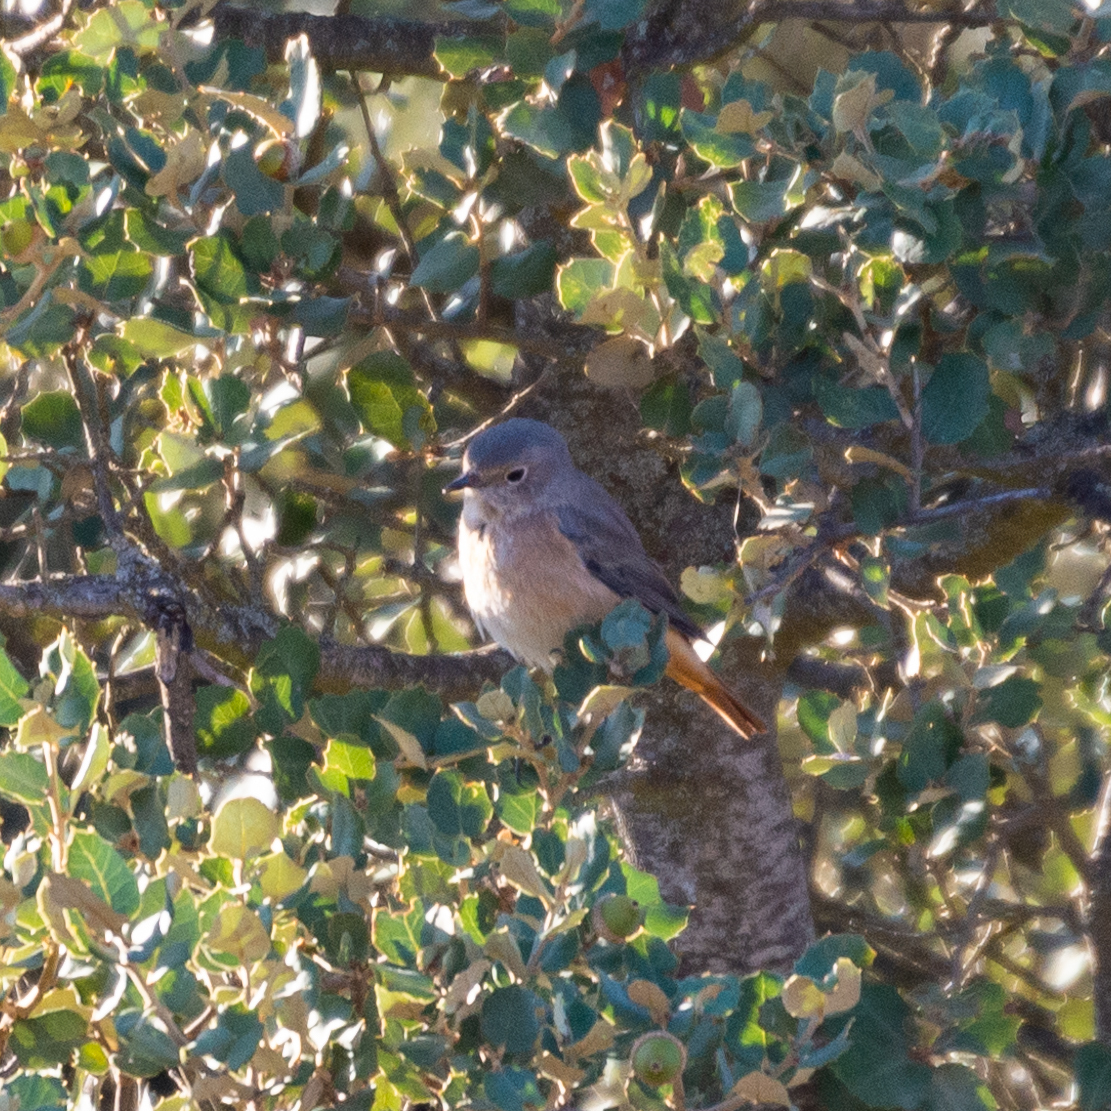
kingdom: Animalia
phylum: Chordata
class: Aves
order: Passeriformes
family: Muscicapidae
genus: Phoenicurus
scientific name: Phoenicurus phoenicurus
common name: Common redstart
